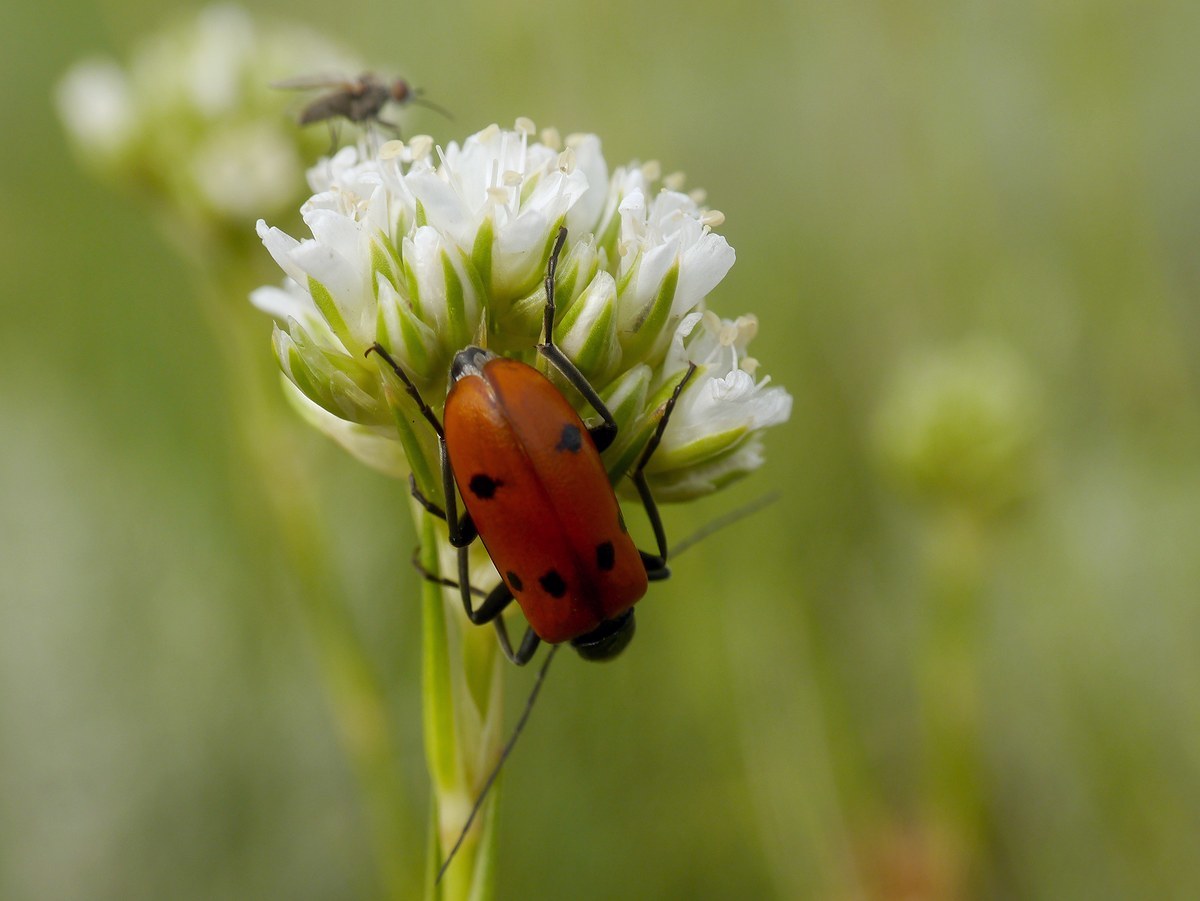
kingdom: Animalia
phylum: Arthropoda
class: Insecta
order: Coleoptera
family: Meloidae
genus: Stenodera
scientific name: Stenodera caucasica
